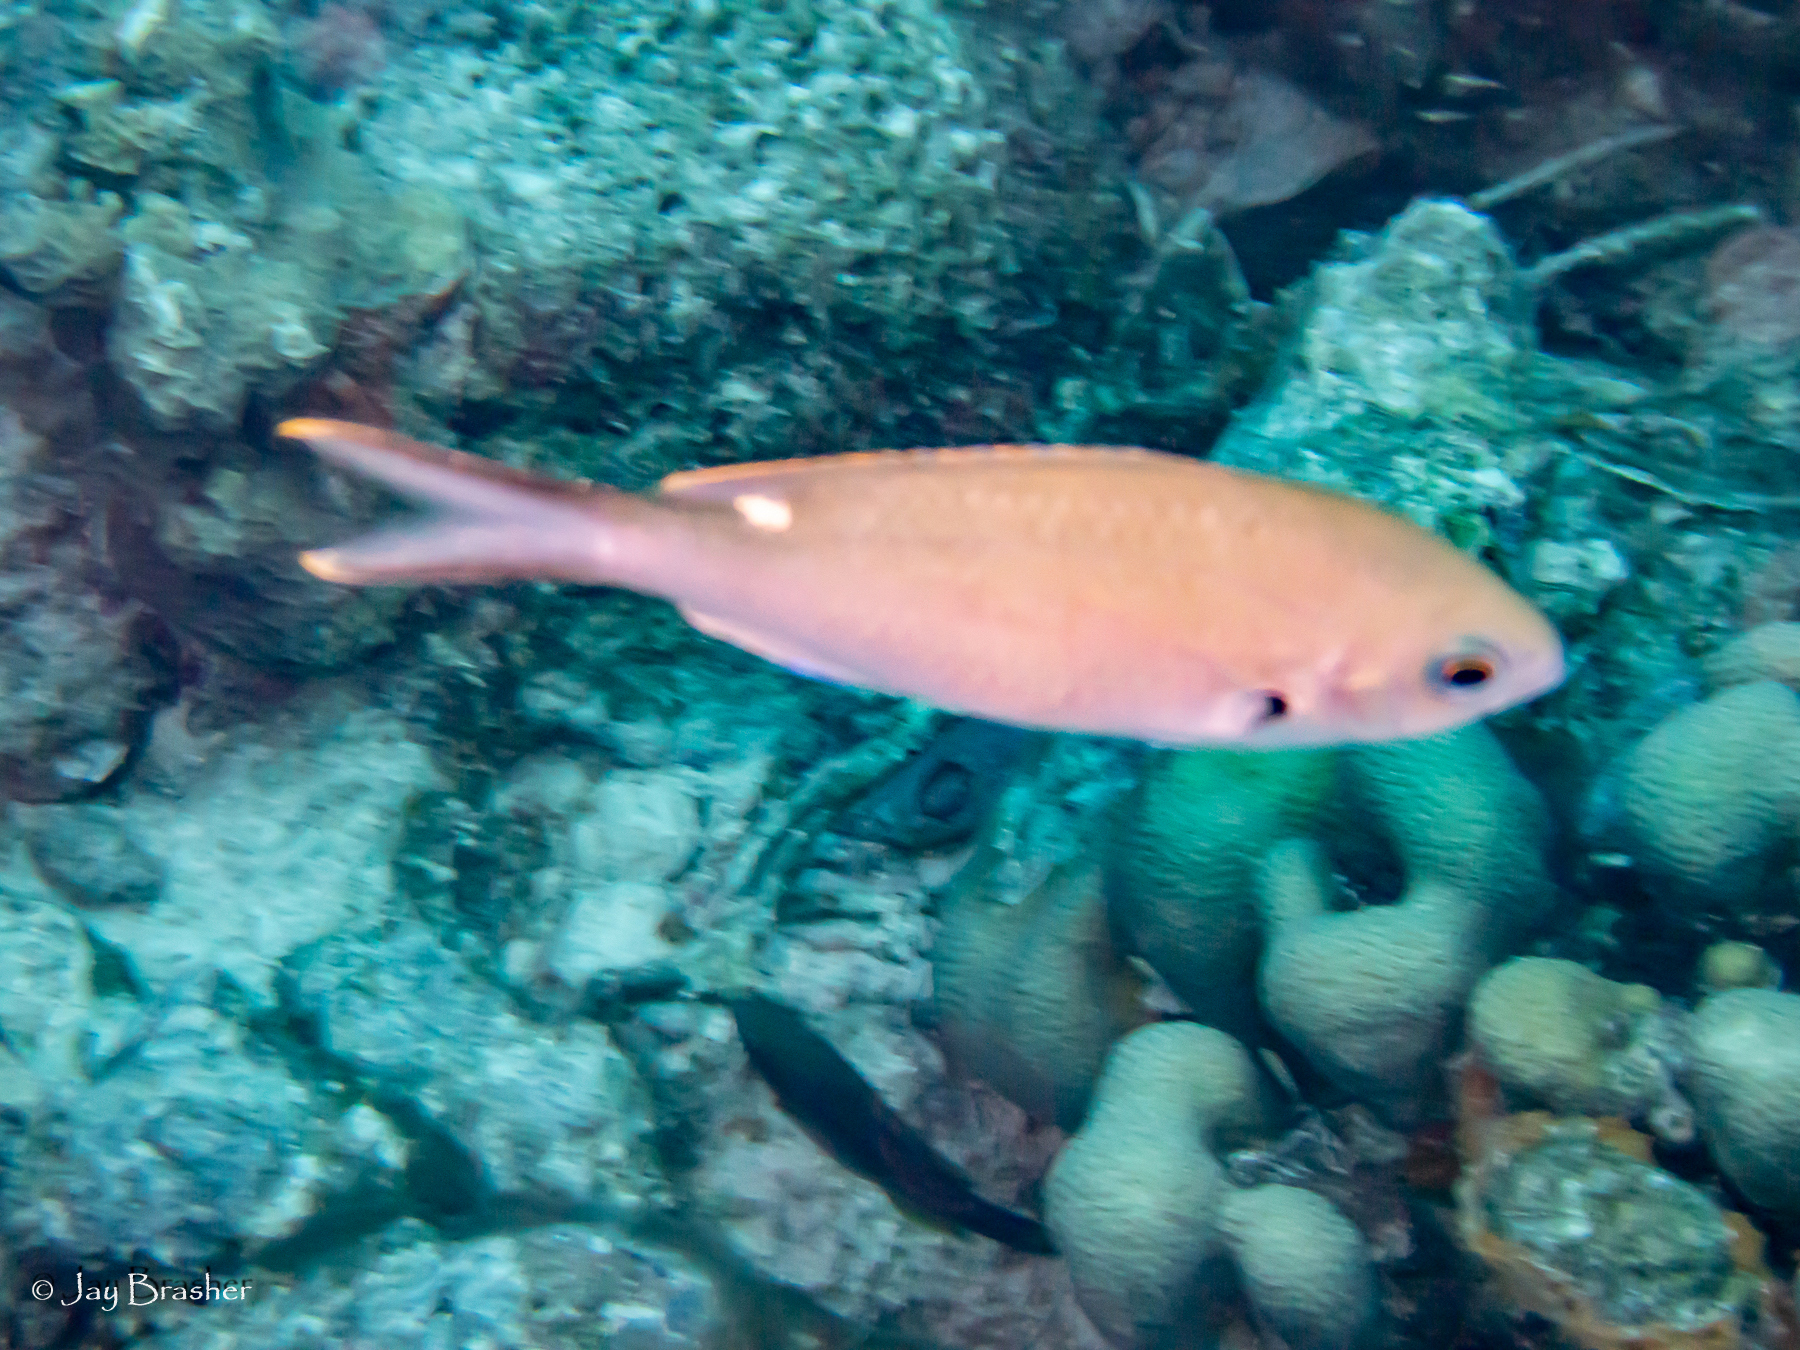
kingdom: Animalia
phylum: Chordata
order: Perciformes
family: Pomacentridae
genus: Chromis
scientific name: Chromis multilineata
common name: Brown chromis
